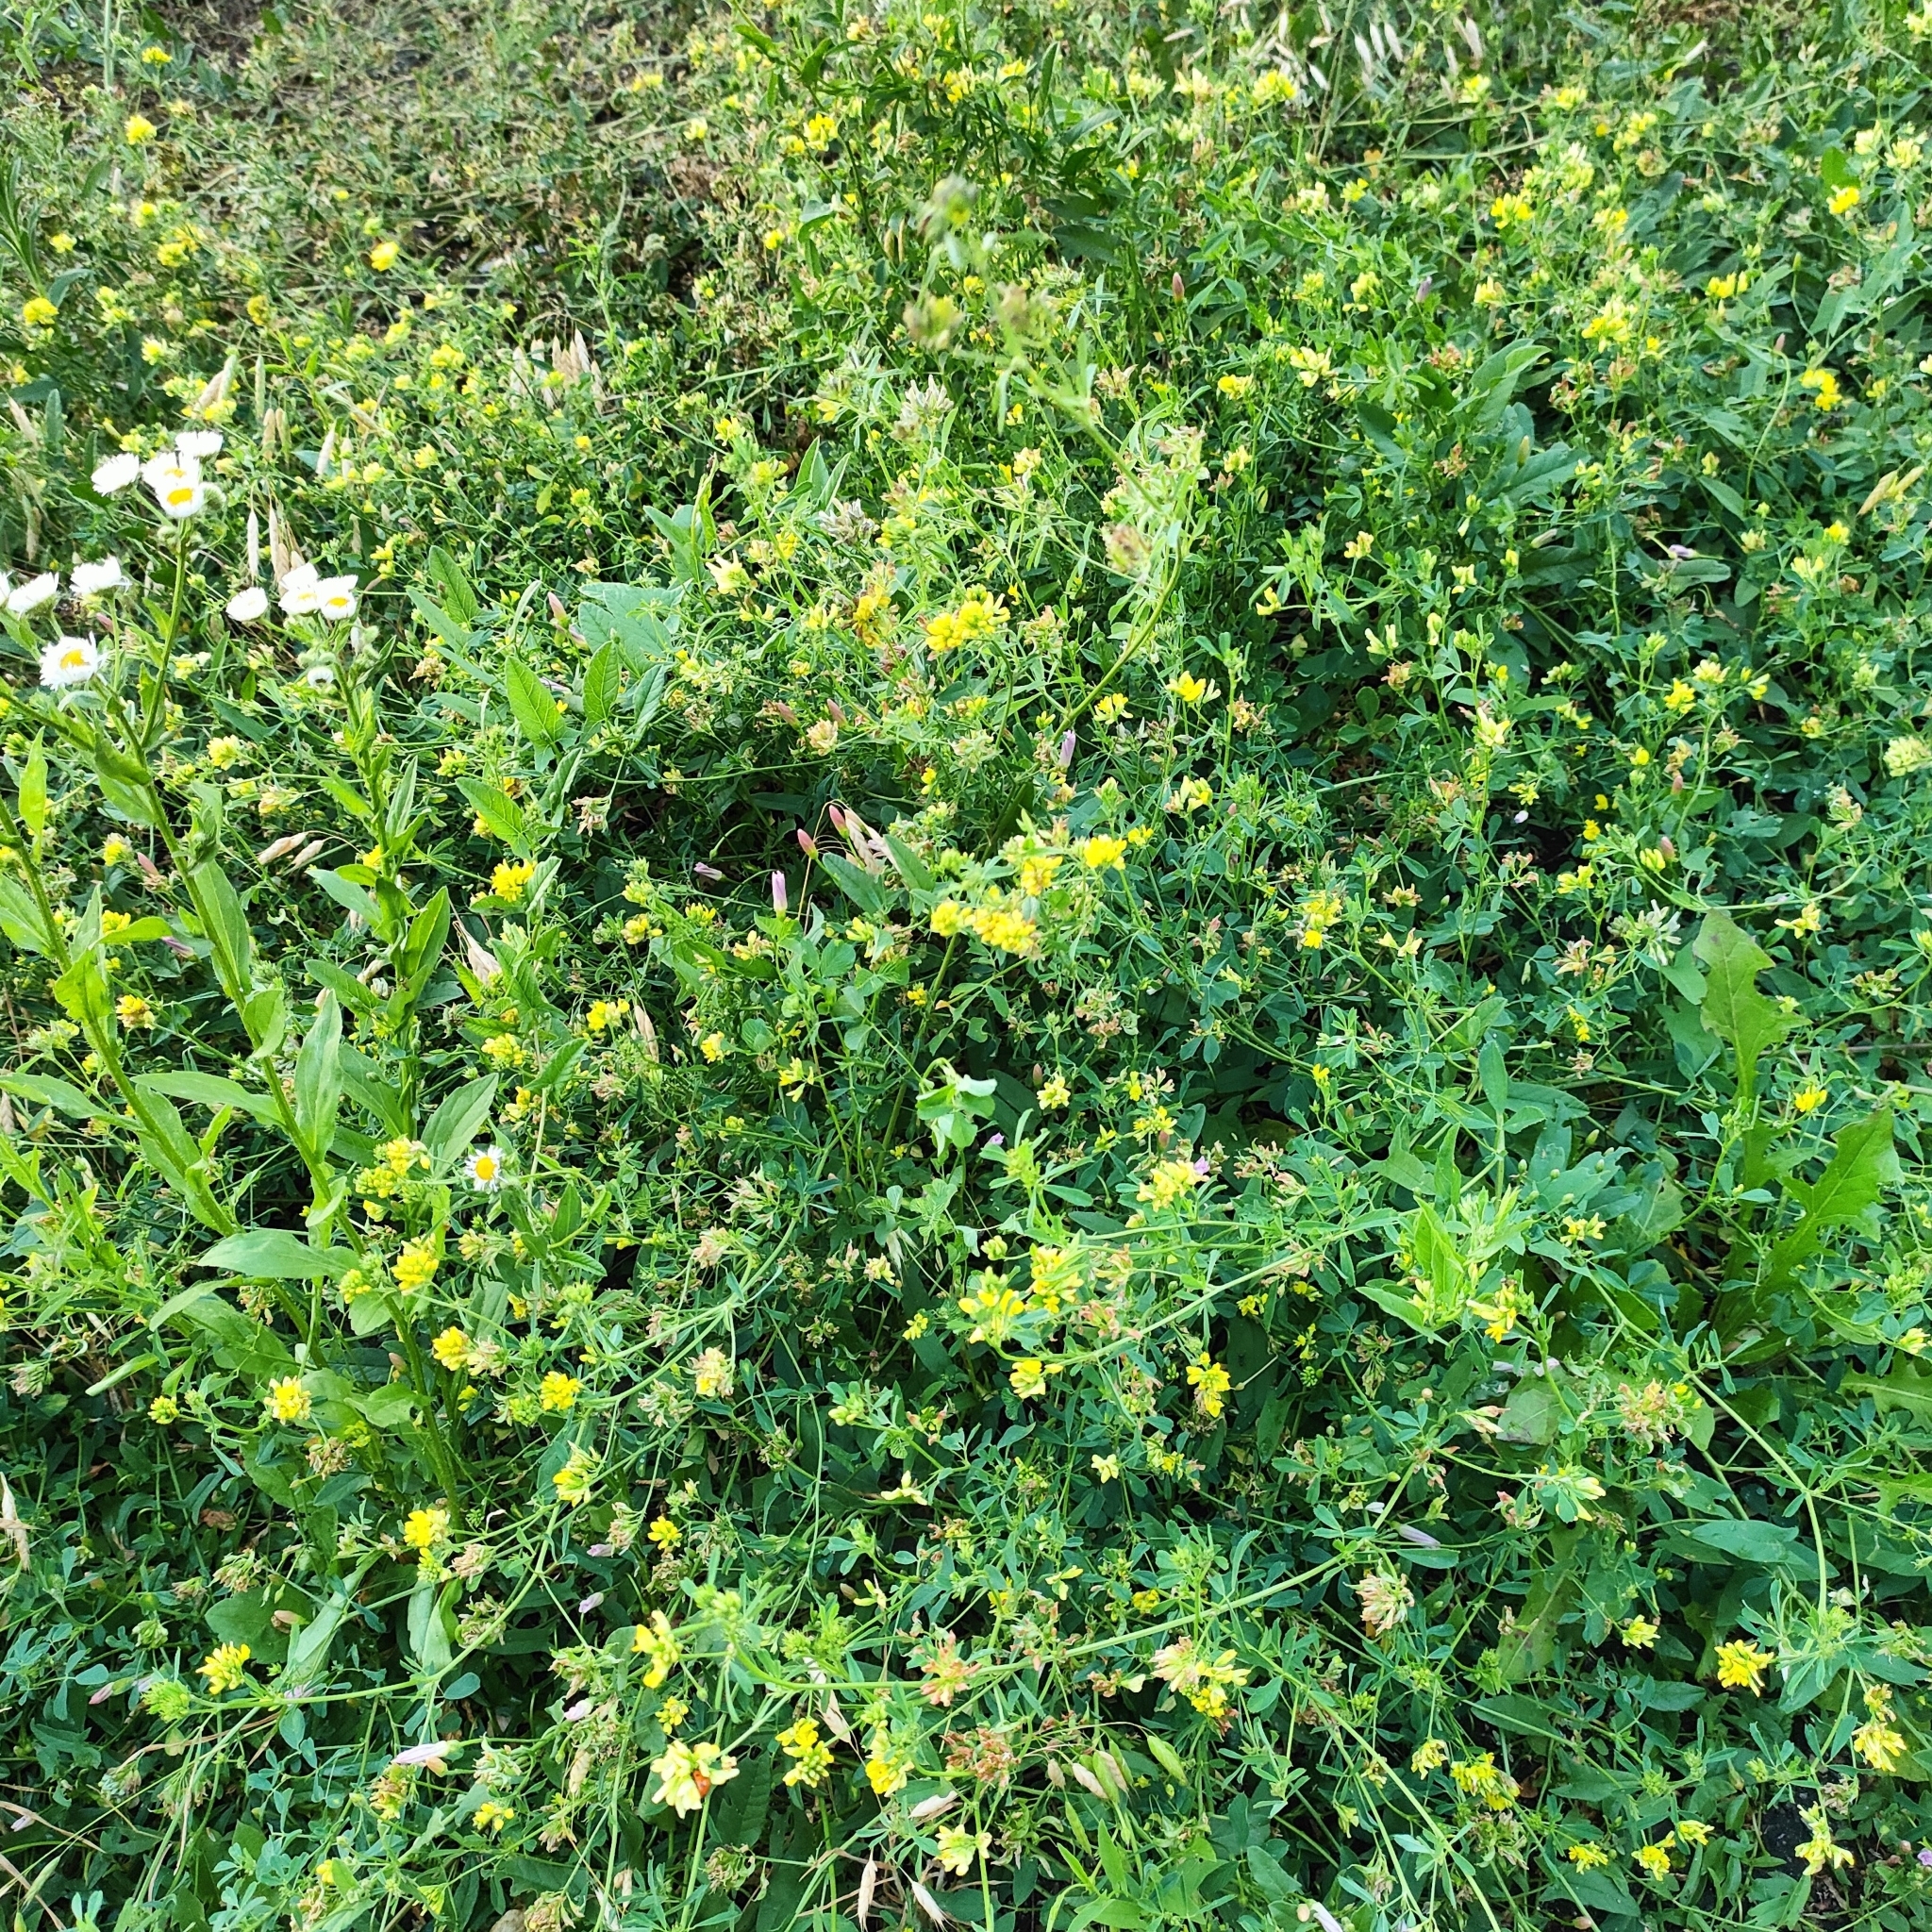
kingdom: Plantae
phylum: Tracheophyta
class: Magnoliopsida
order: Fabales
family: Fabaceae
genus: Medicago
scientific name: Medicago falcata
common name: Sickle medick
